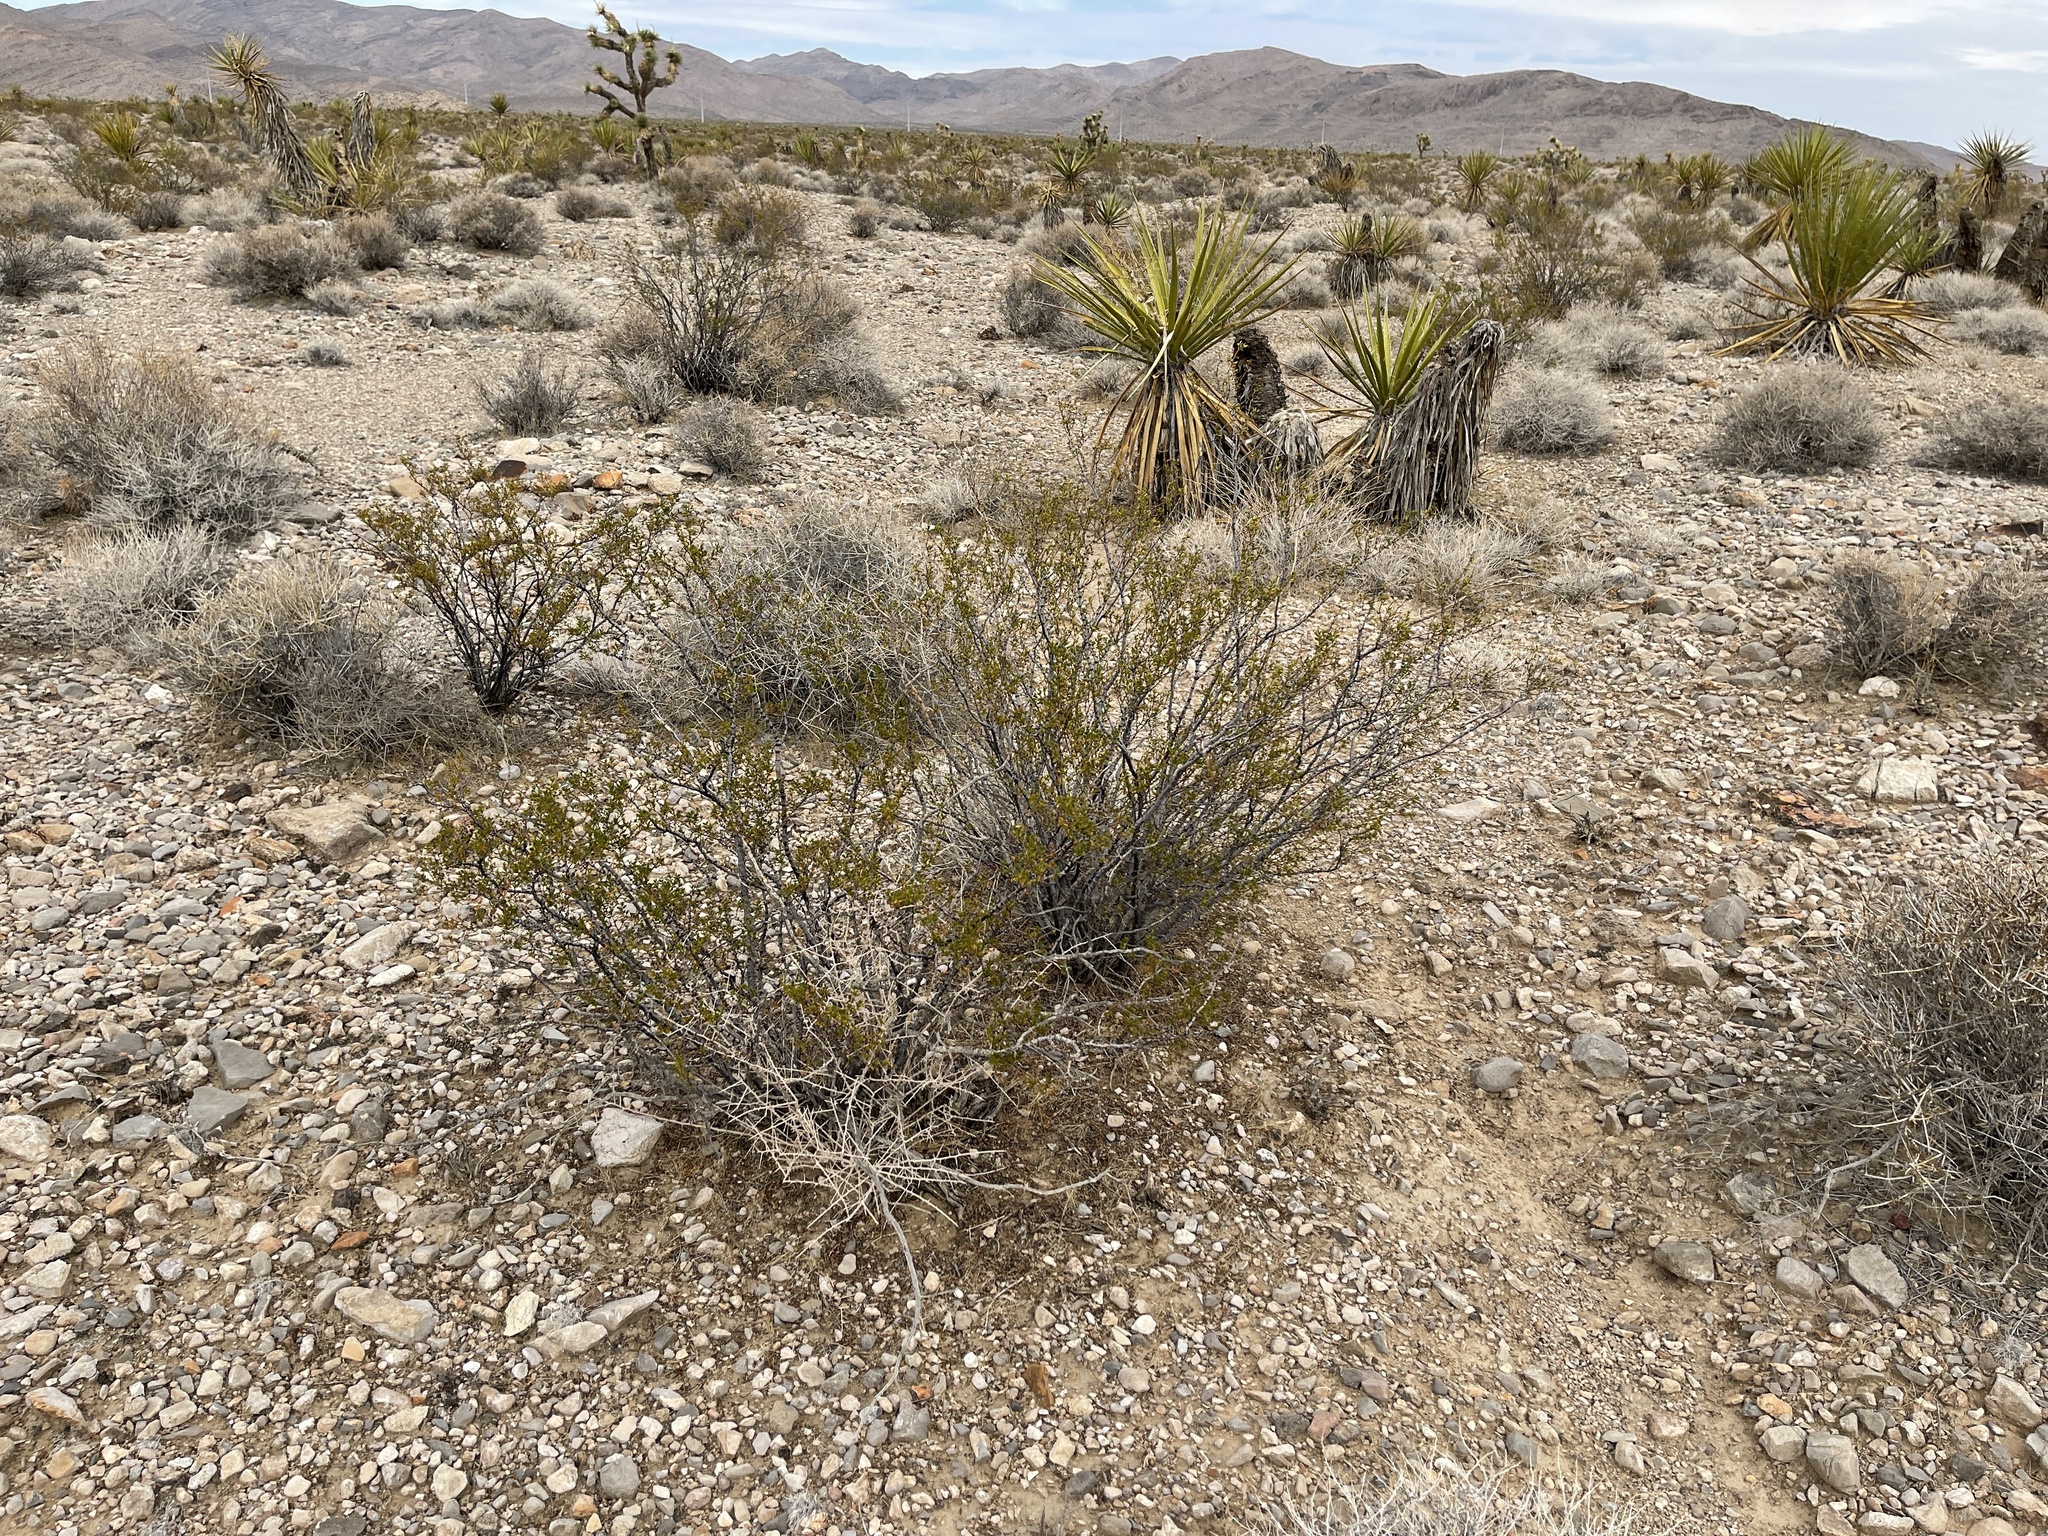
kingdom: Plantae
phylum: Tracheophyta
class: Magnoliopsida
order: Zygophyllales
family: Zygophyllaceae
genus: Larrea
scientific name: Larrea tridentata
